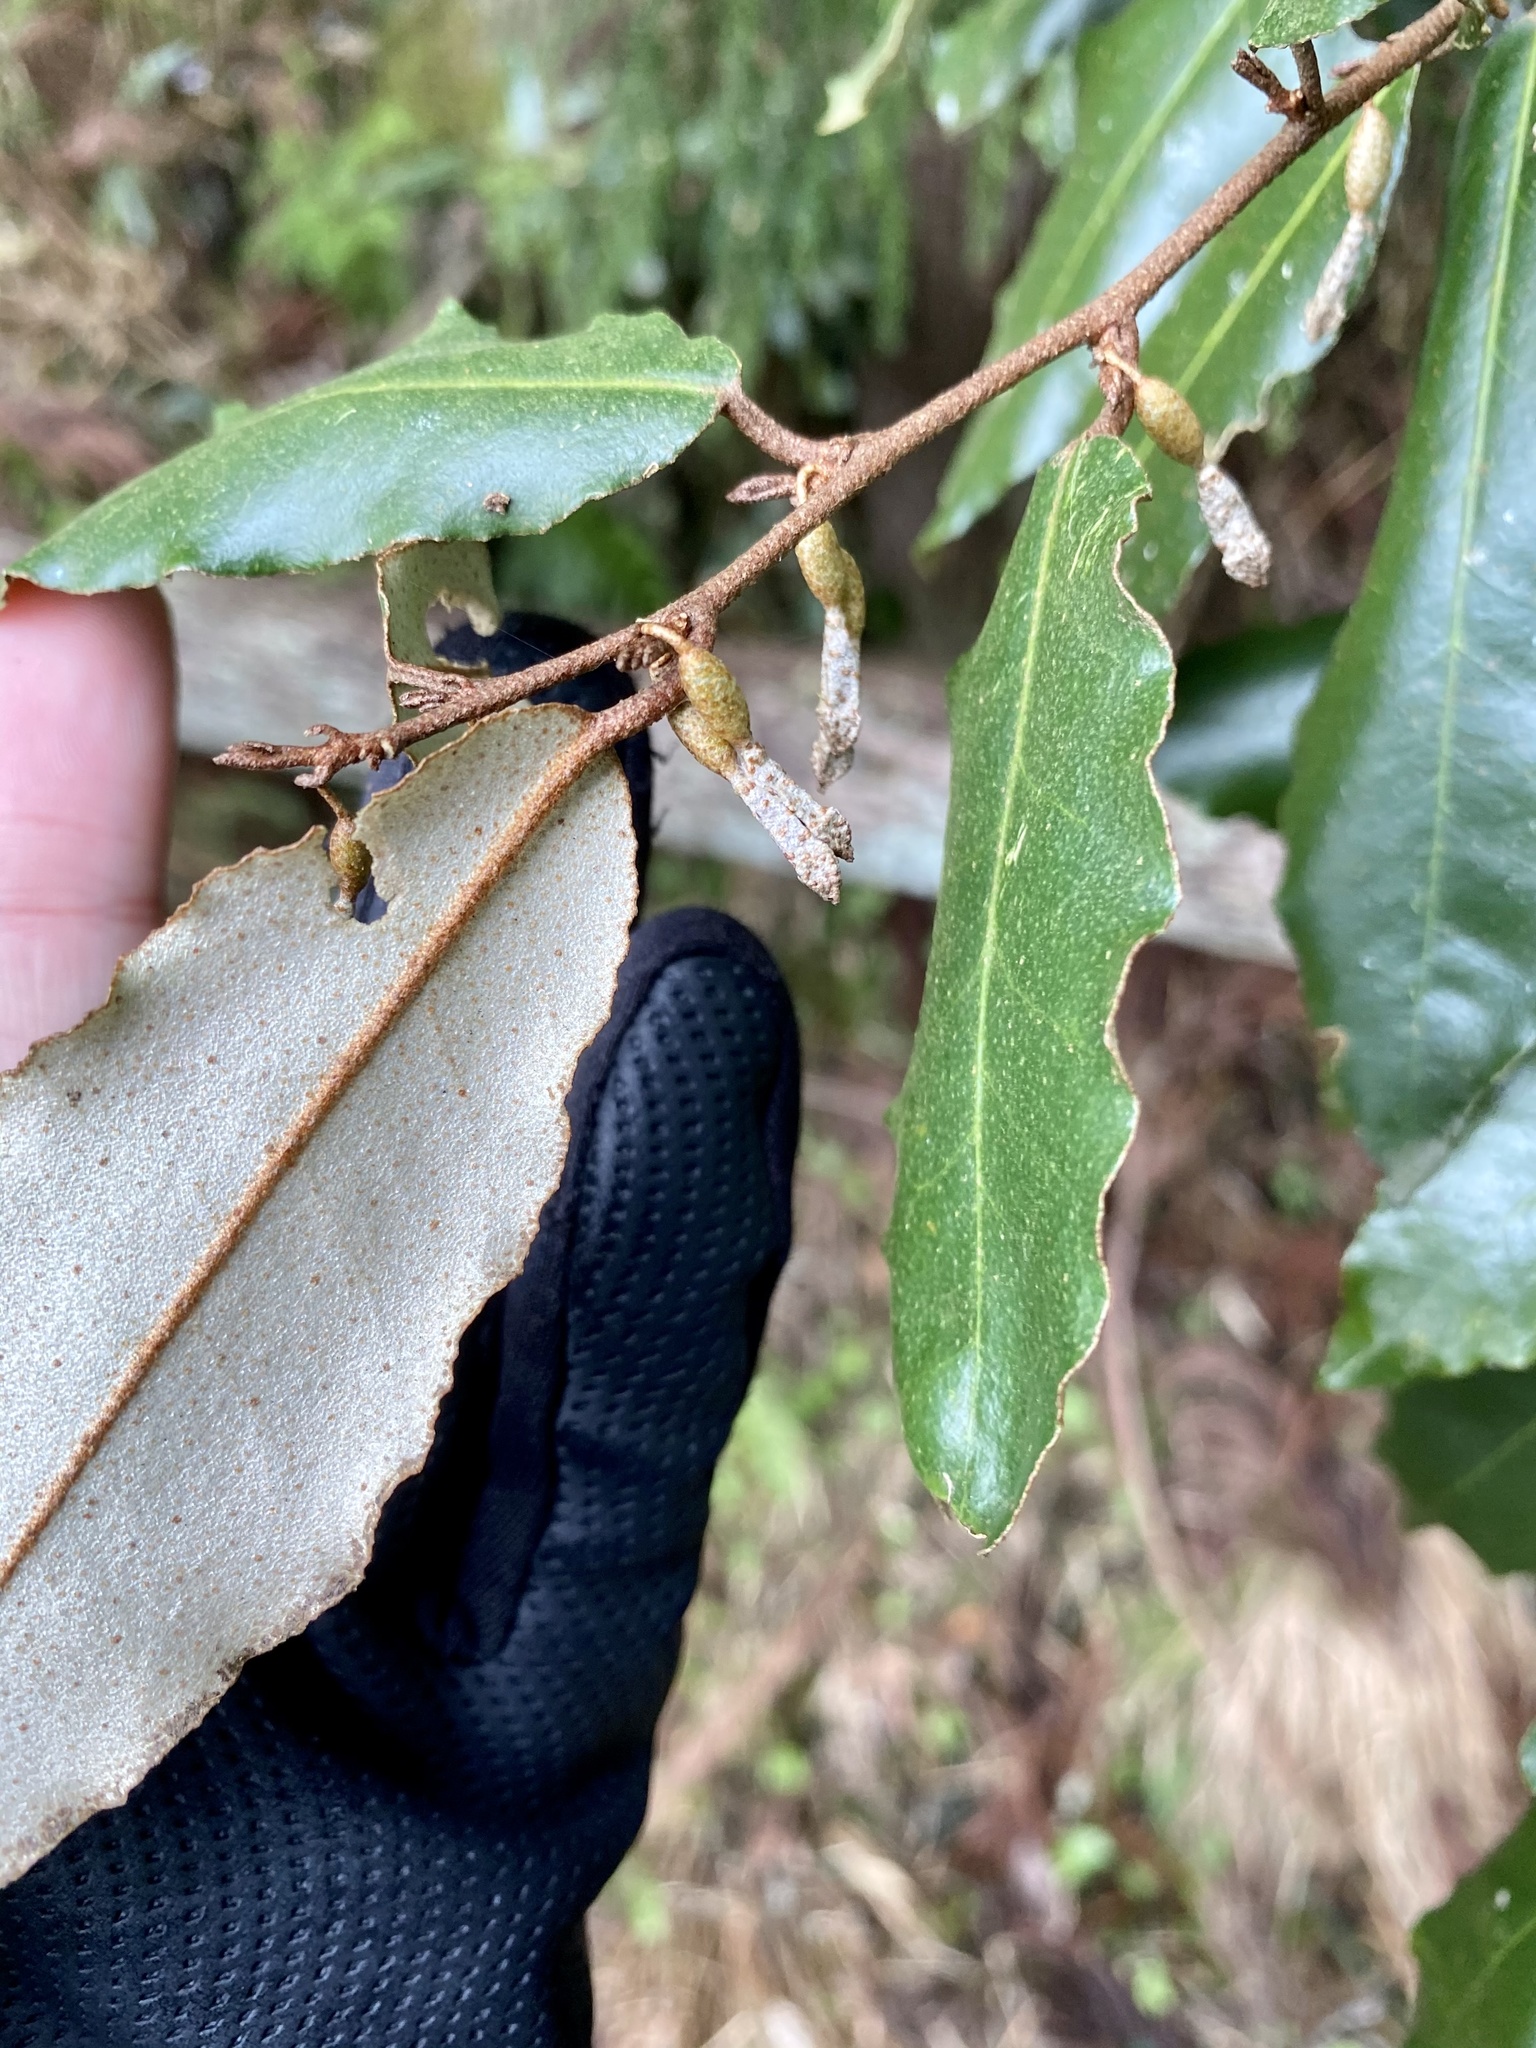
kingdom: Plantae
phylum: Tracheophyta
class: Magnoliopsida
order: Rosales
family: Elaeagnaceae
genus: Elaeagnus
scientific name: Elaeagnus pungens
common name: Spiny oleaster
